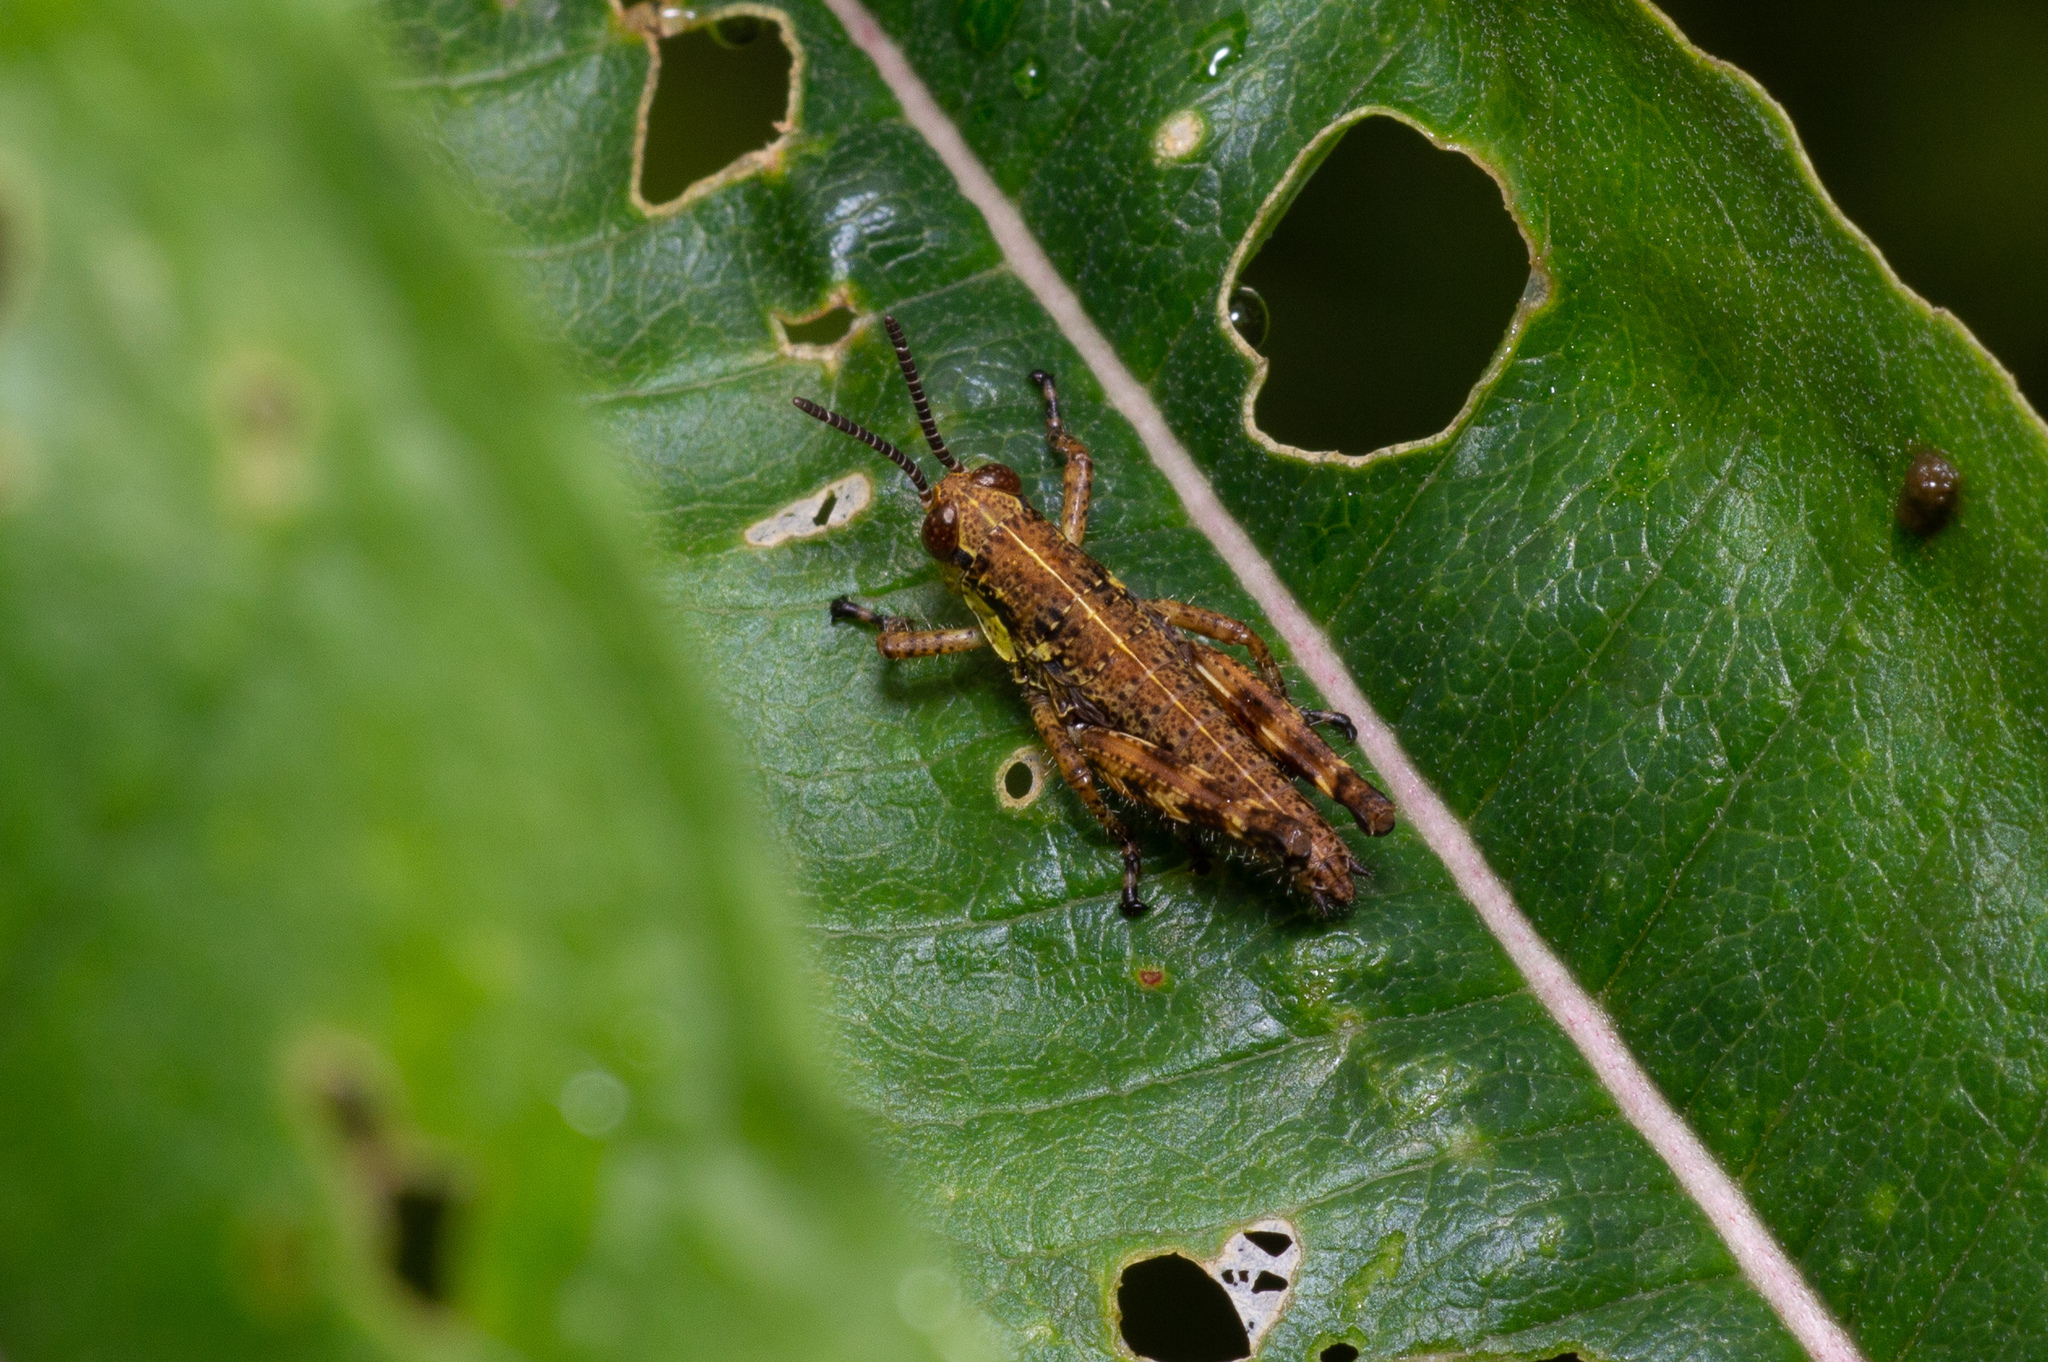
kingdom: Animalia
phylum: Arthropoda
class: Insecta
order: Orthoptera
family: Acrididae
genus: Booneacris
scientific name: Booneacris glacialis
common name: Wingless mountain grasshopper
